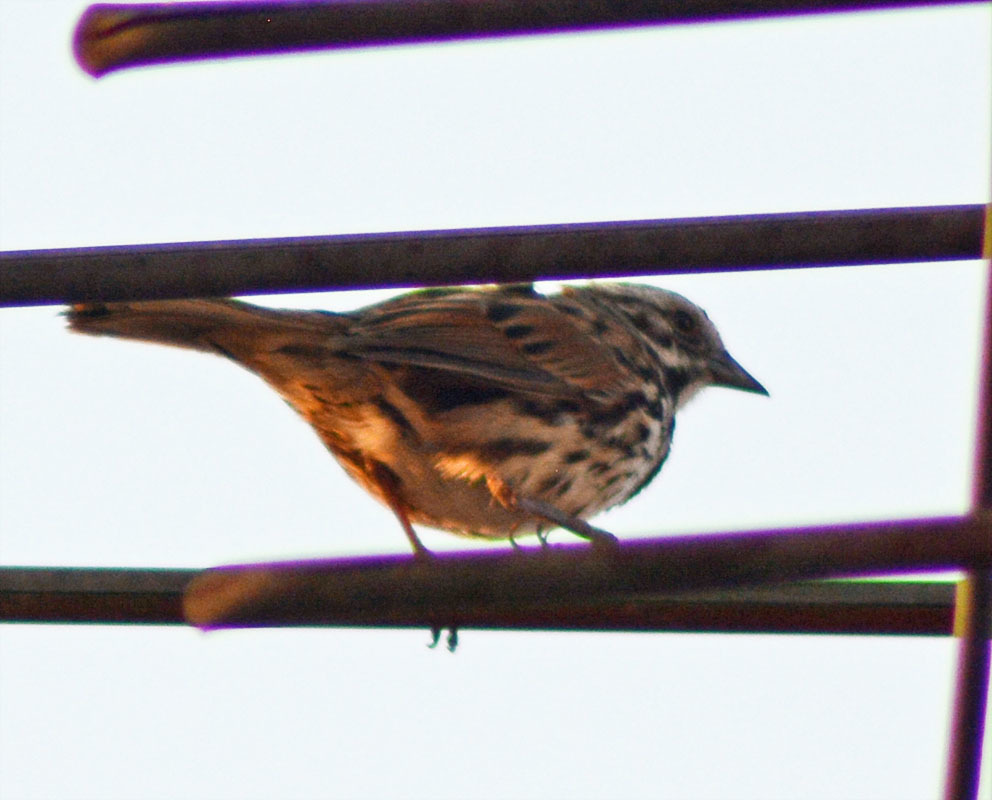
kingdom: Animalia
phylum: Chordata
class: Aves
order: Passeriformes
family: Passerellidae
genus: Melospiza
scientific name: Melospiza melodia
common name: Song sparrow
